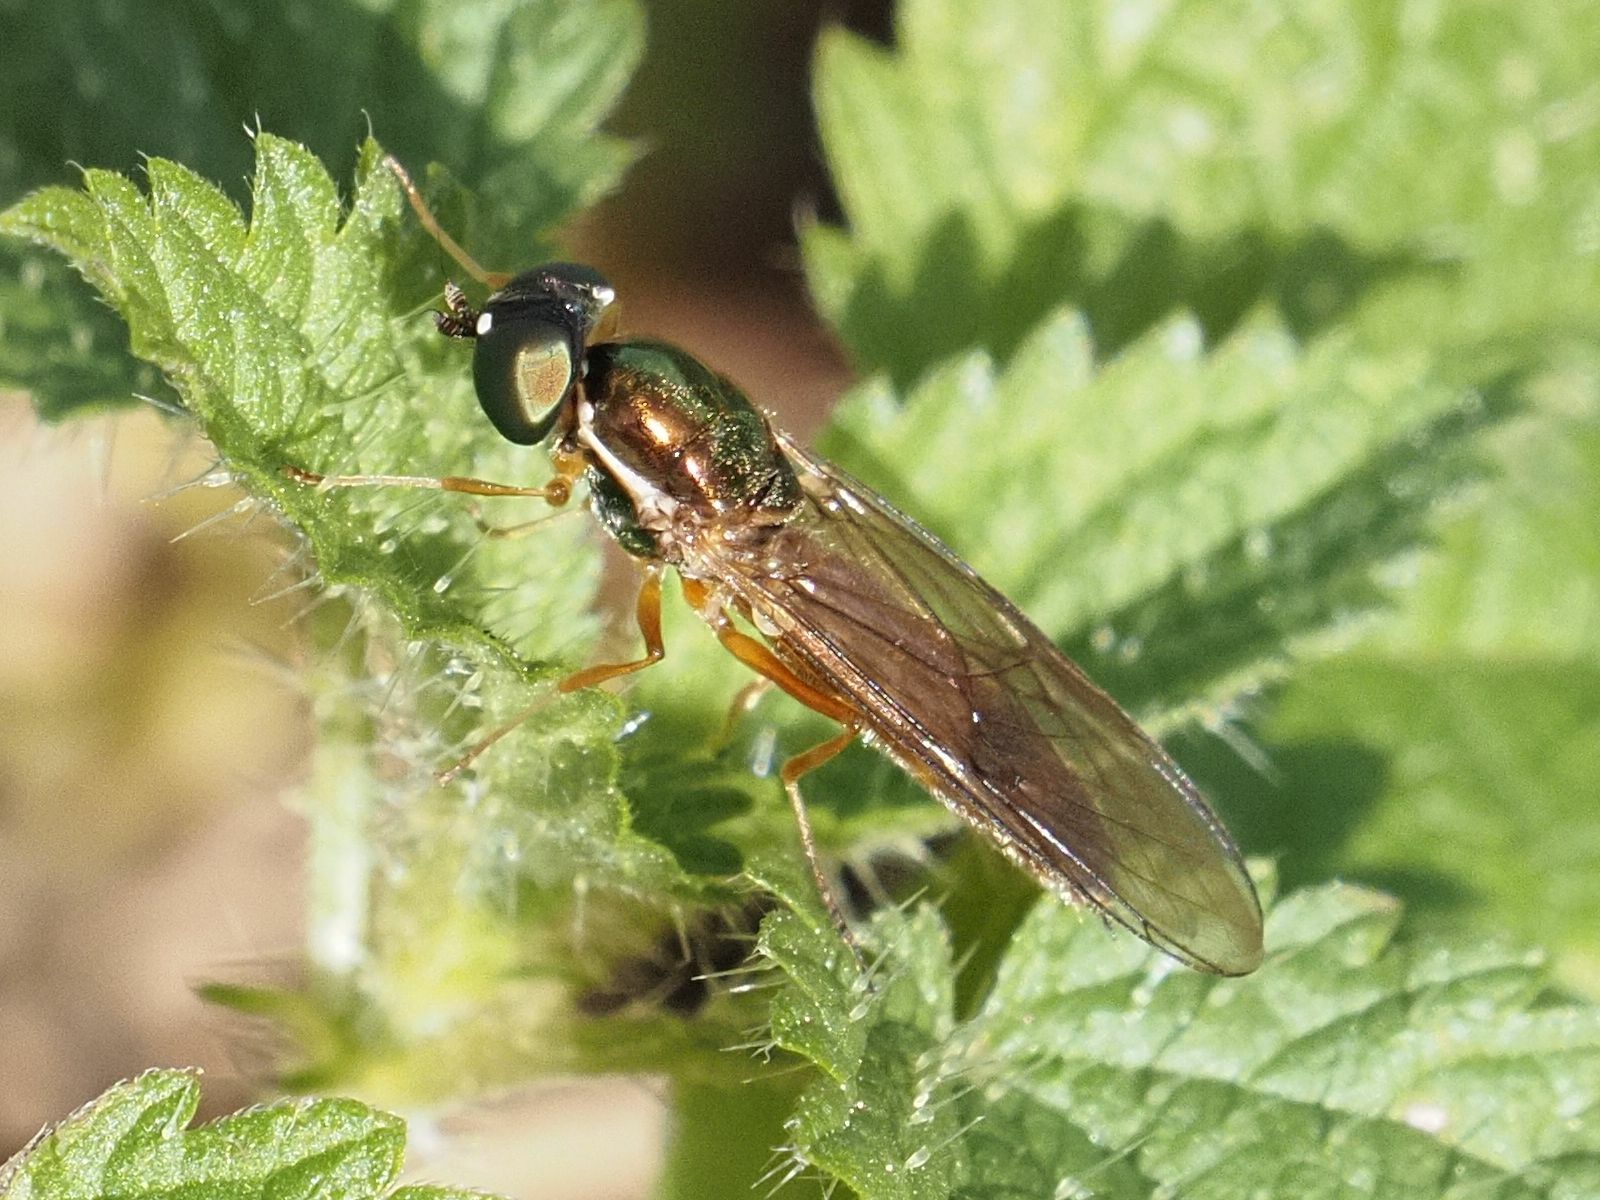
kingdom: Animalia
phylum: Arthropoda
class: Insecta
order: Diptera
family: Stratiomyidae
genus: Sargus
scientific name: Sargus bipunctatus
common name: Twin-spot centurion
